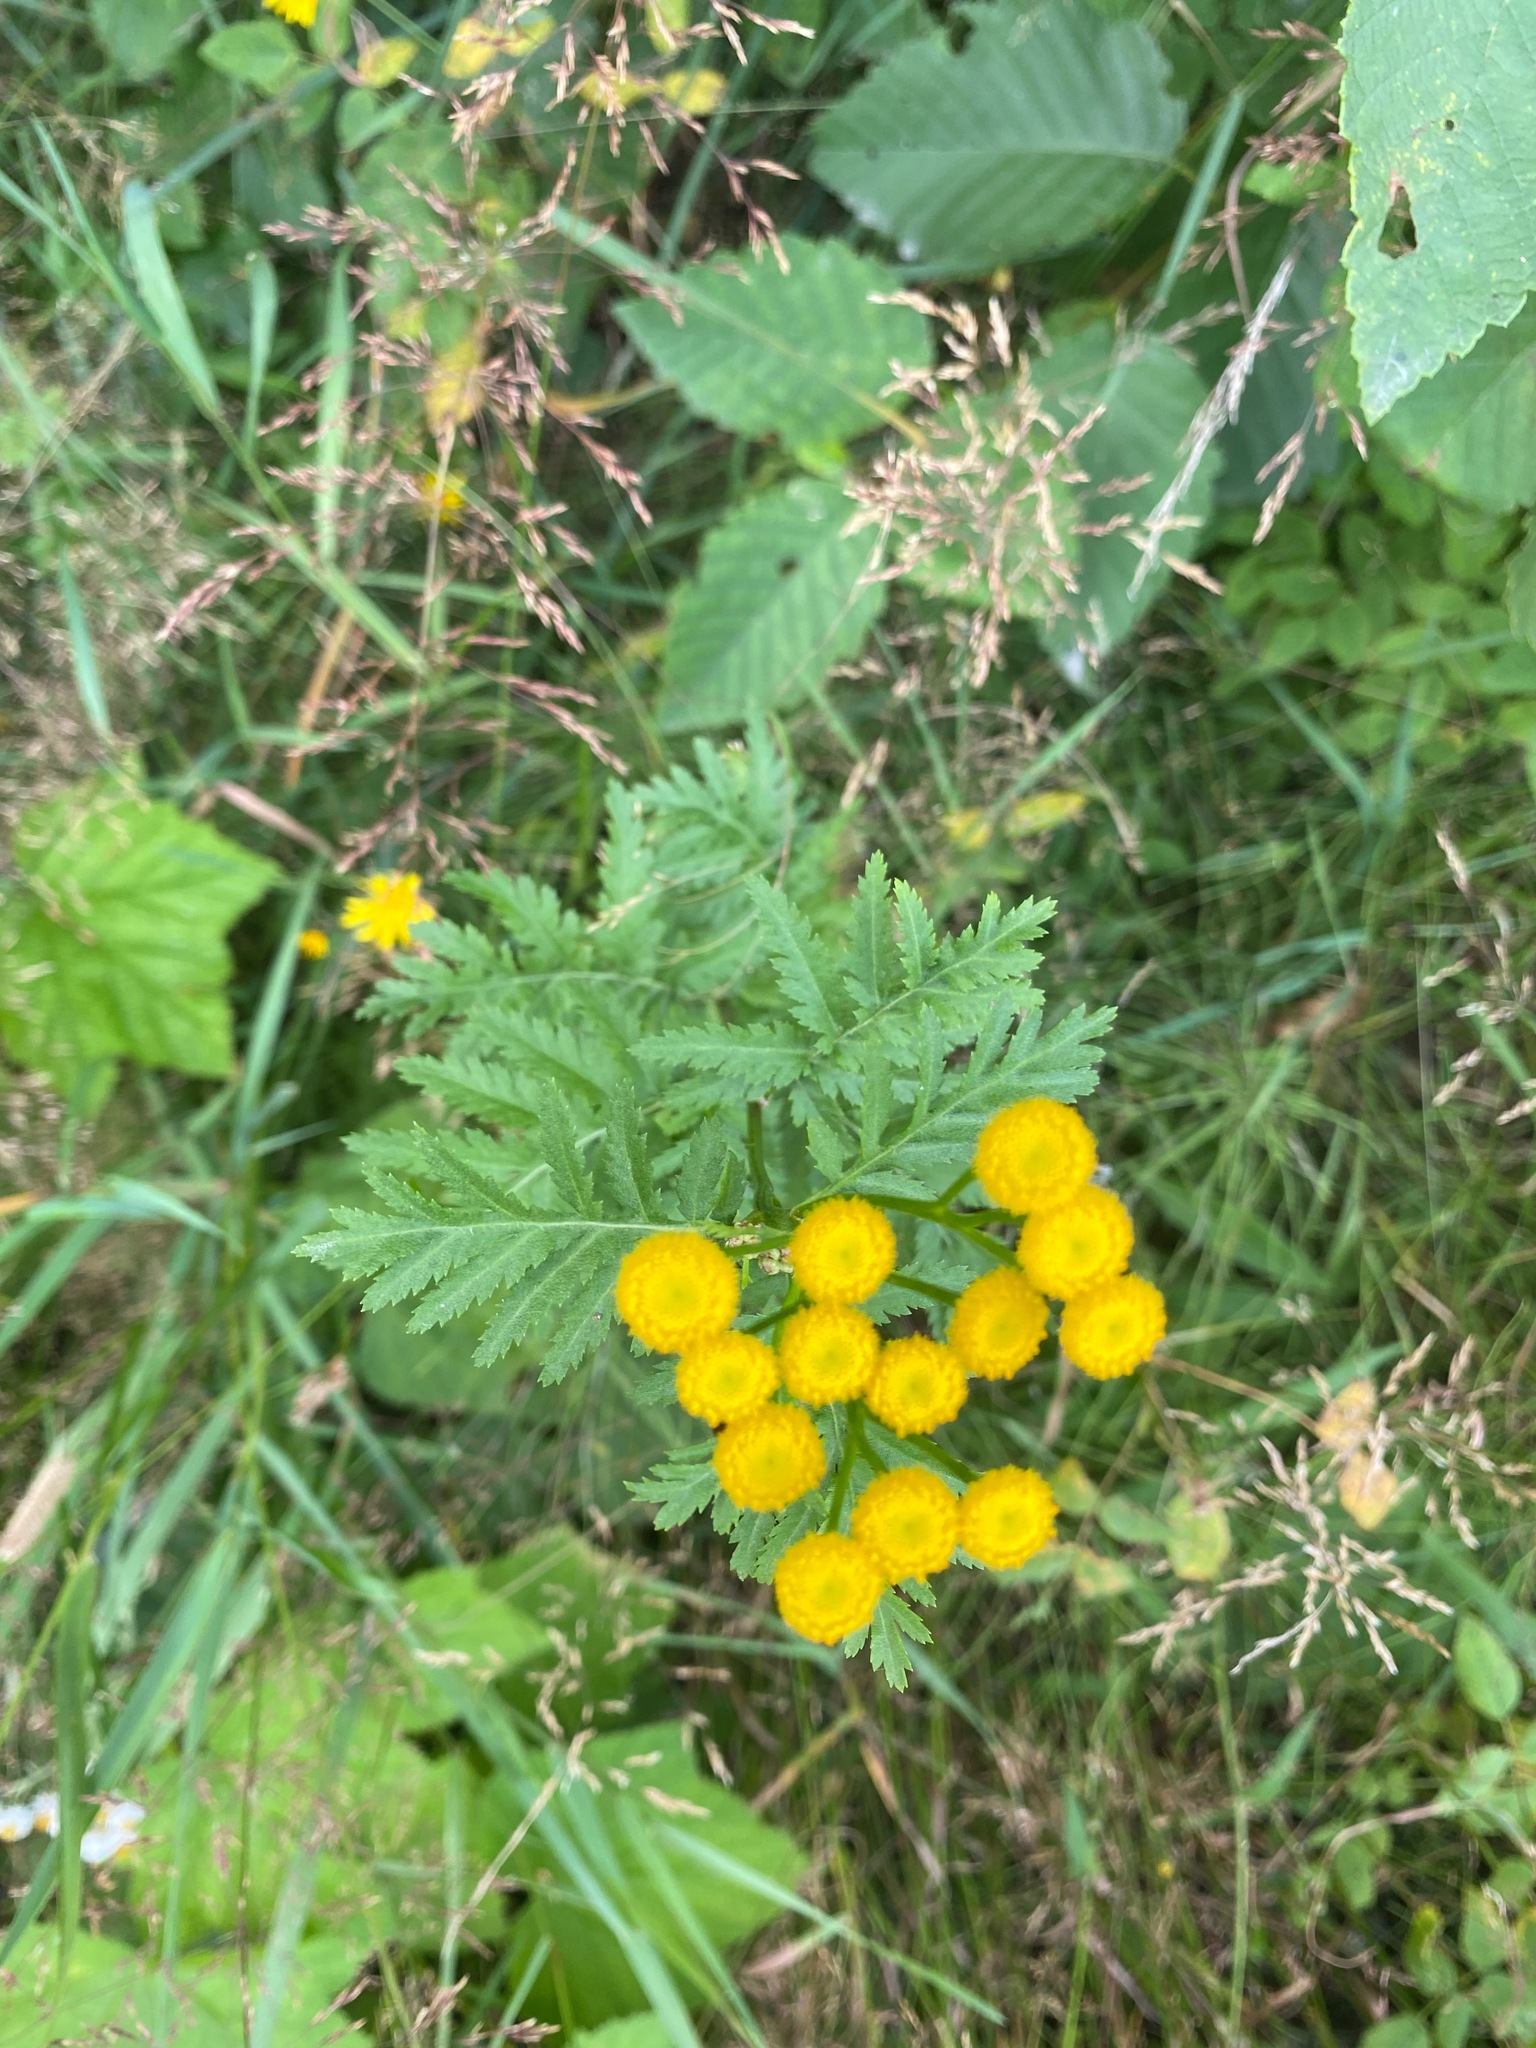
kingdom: Plantae
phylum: Tracheophyta
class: Magnoliopsida
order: Asterales
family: Asteraceae
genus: Tanacetum
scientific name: Tanacetum vulgare
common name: Common tansy
